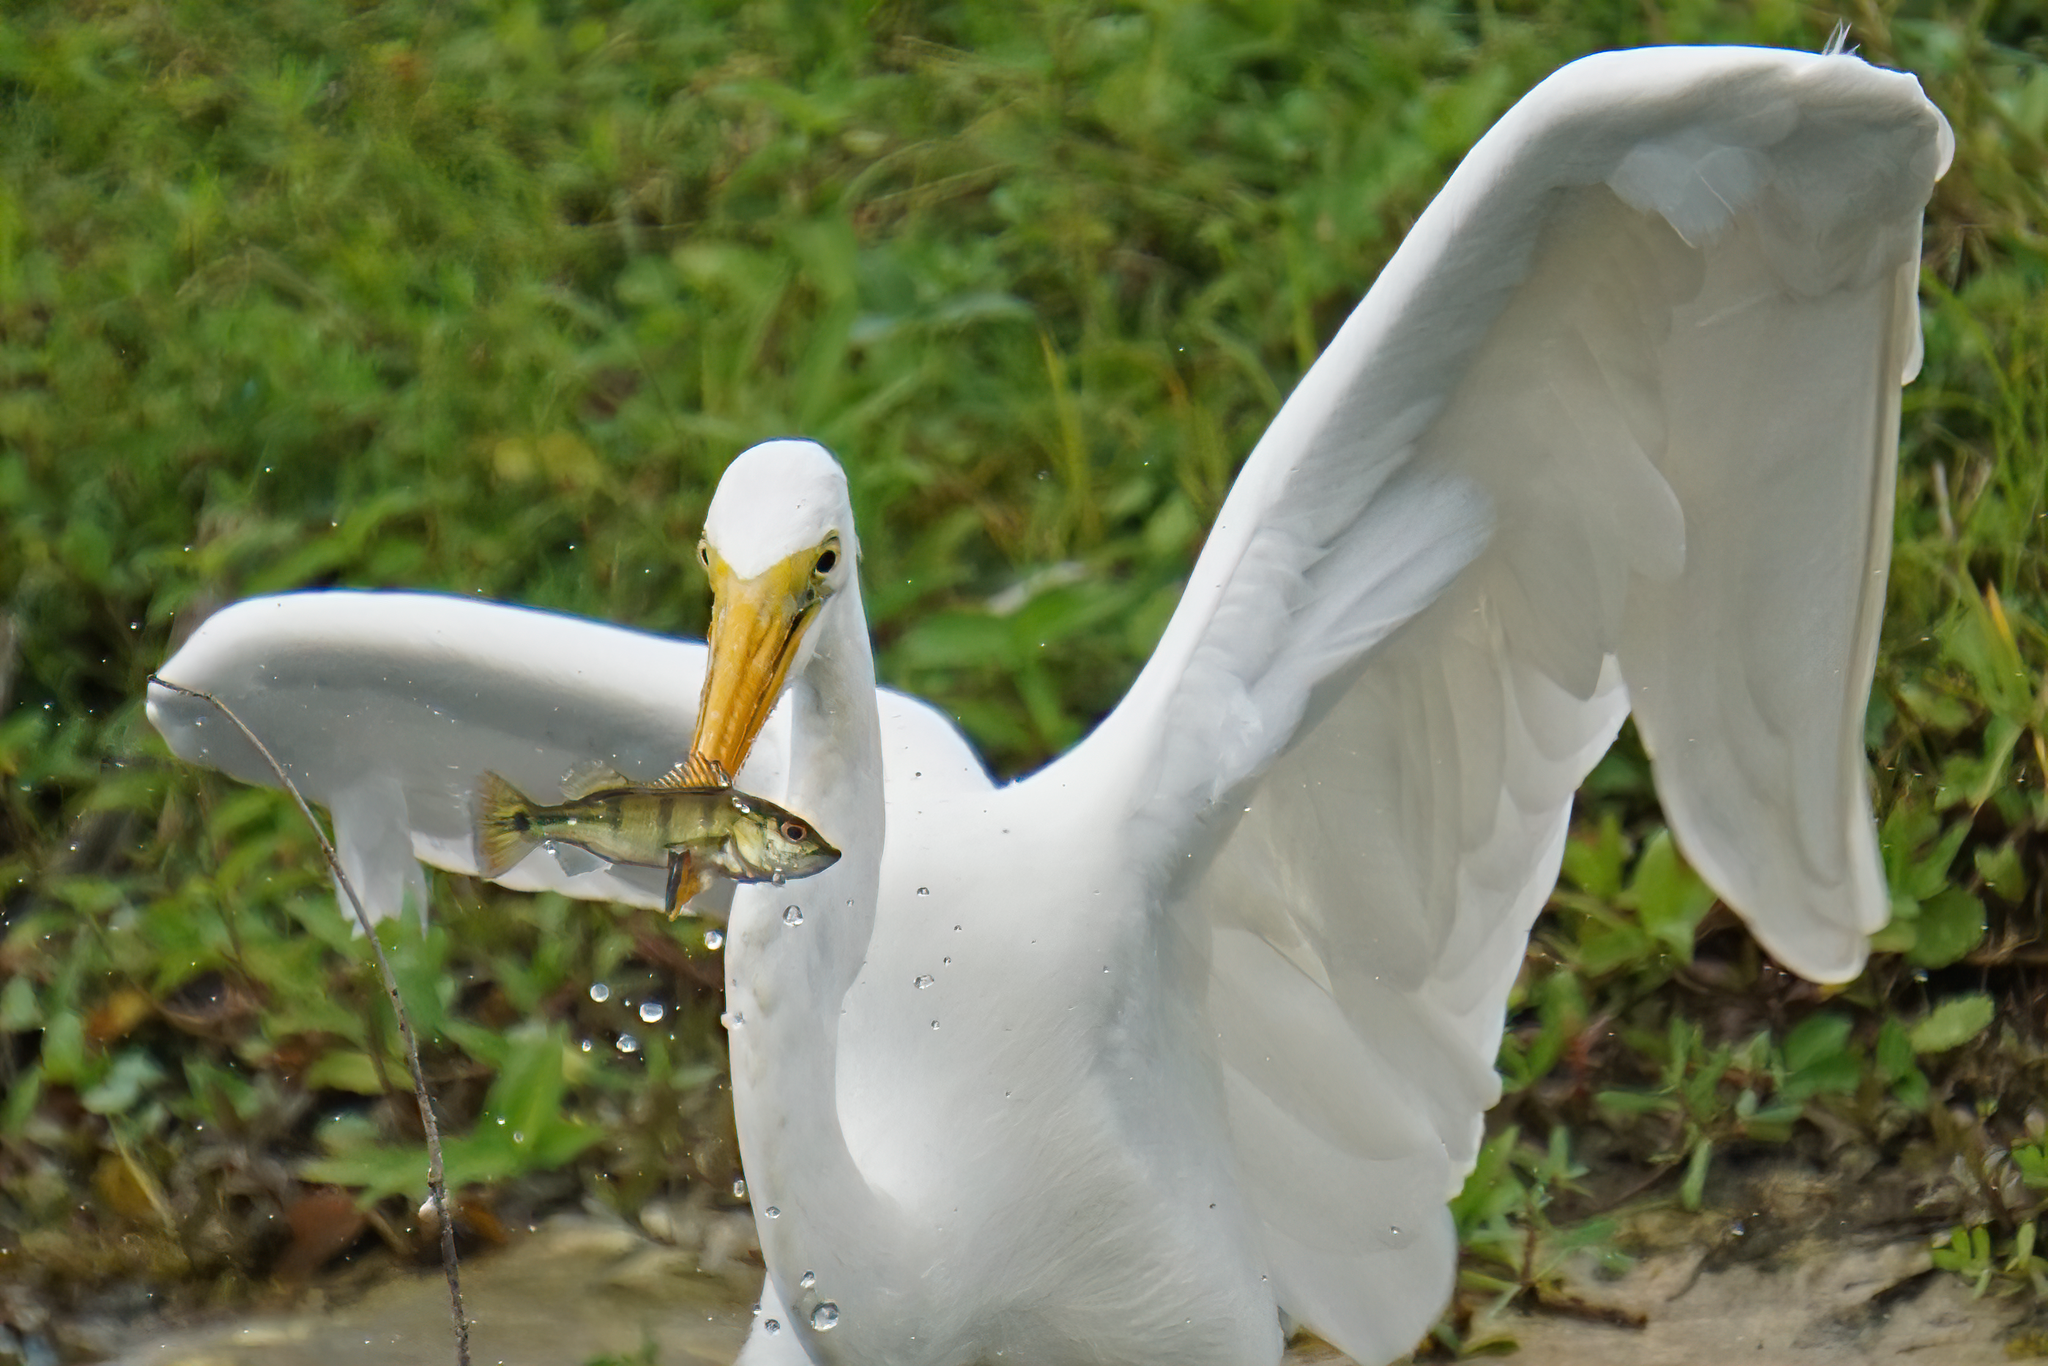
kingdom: Animalia
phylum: Chordata
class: Aves
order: Pelecaniformes
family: Ardeidae
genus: Ardea
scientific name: Ardea alba
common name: Great egret
